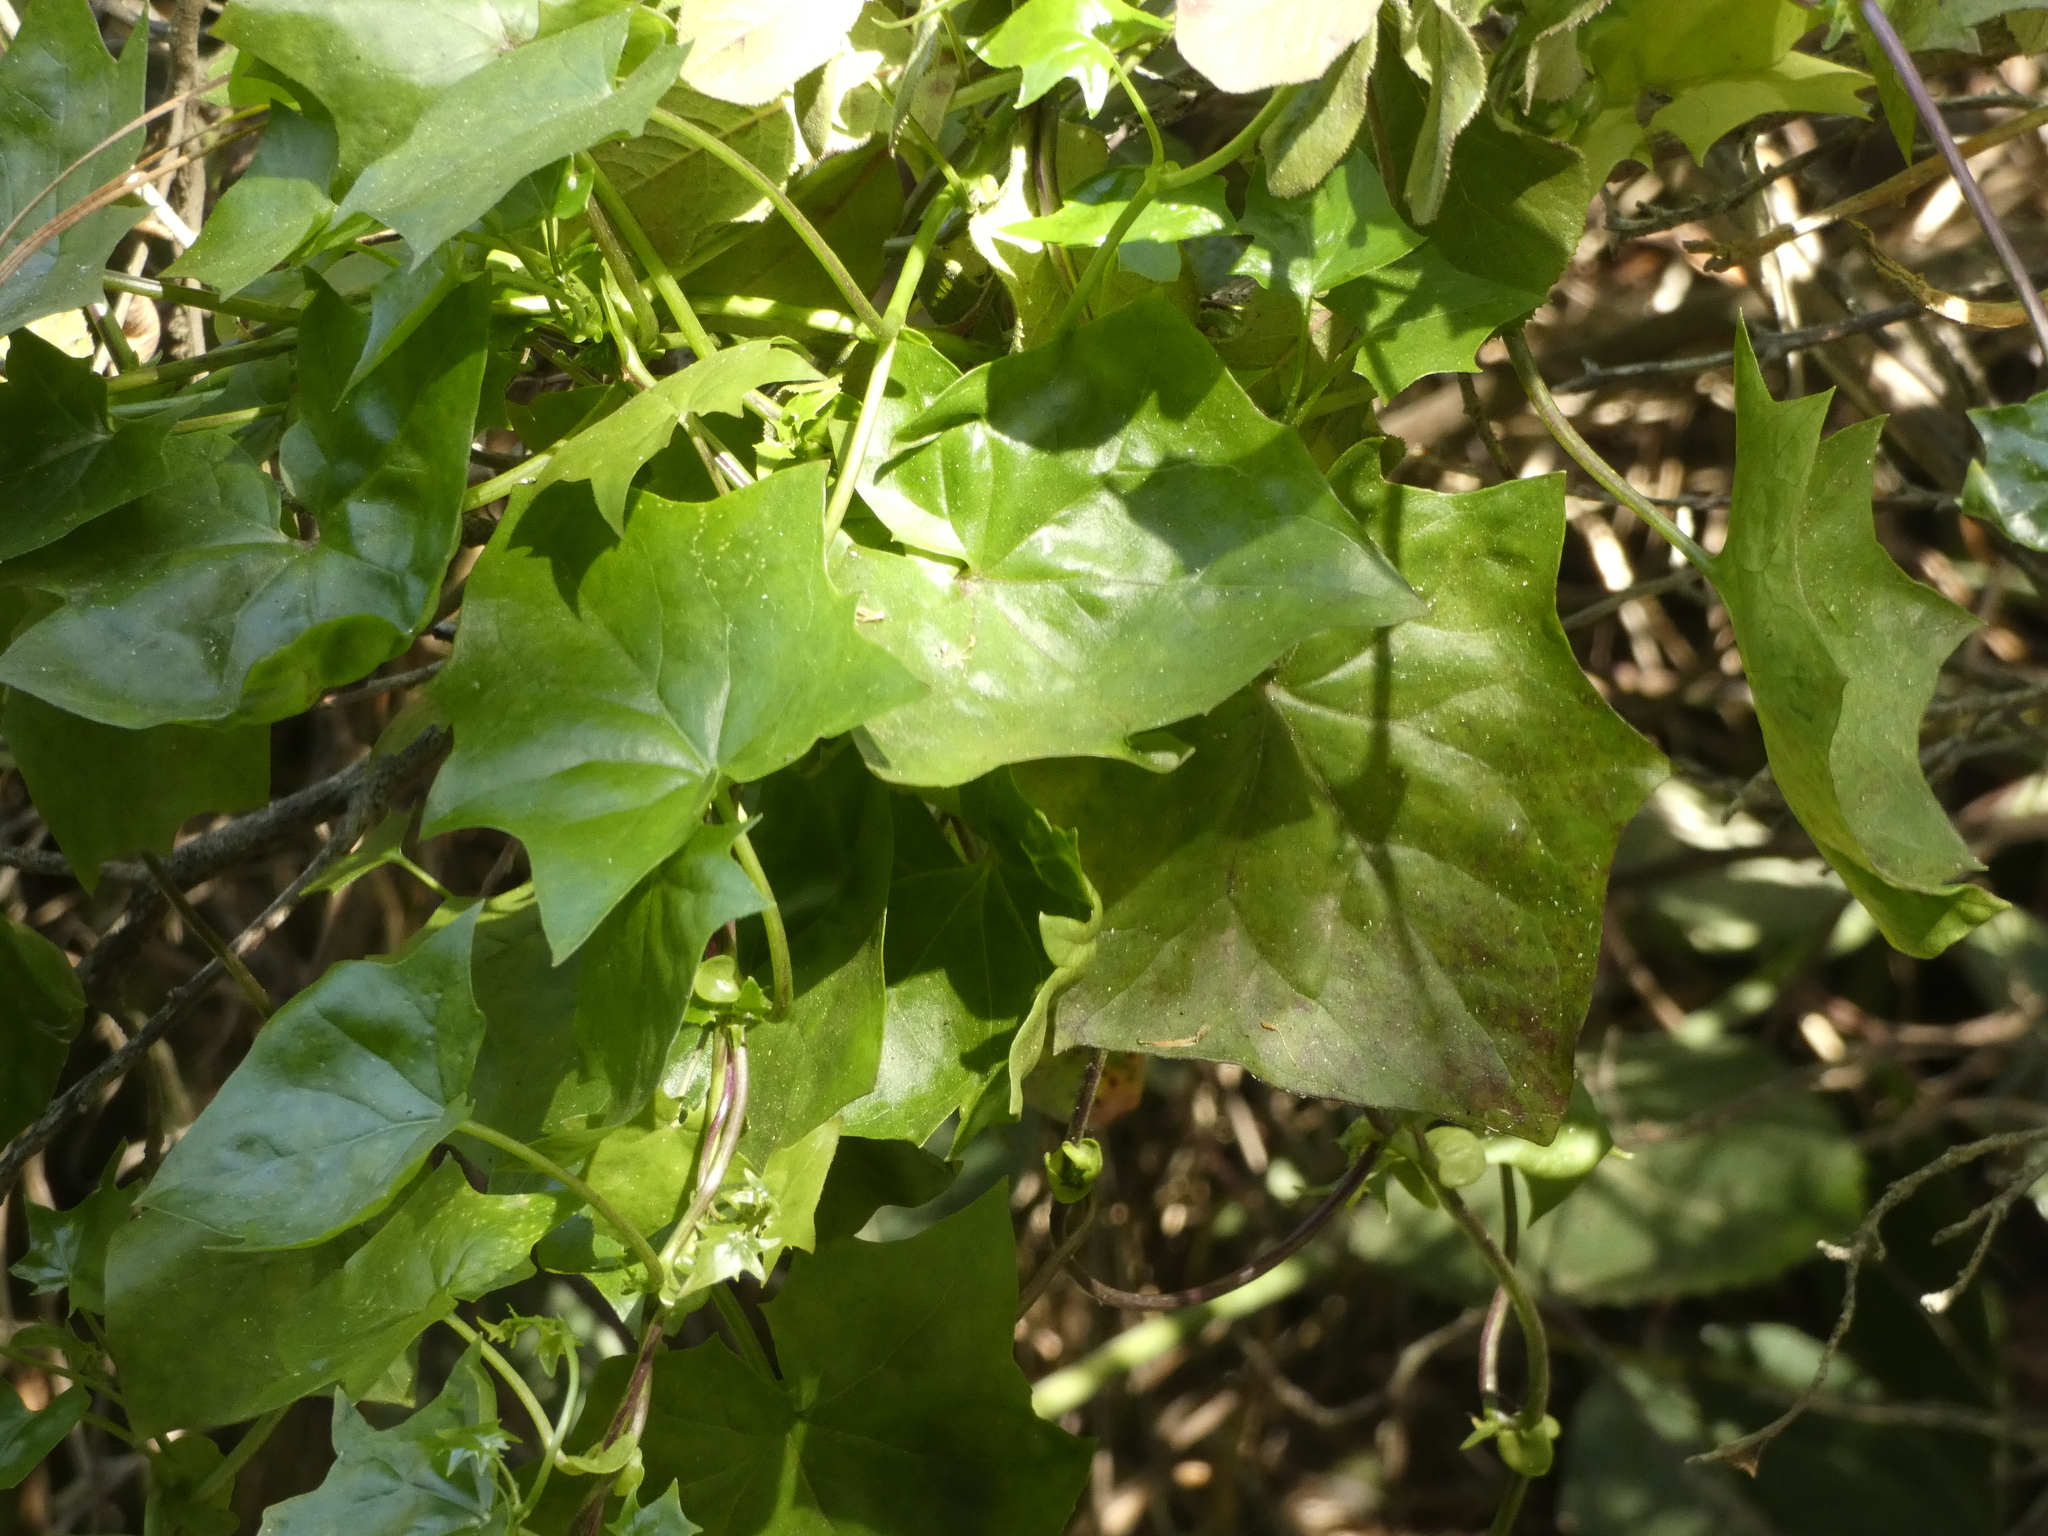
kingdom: Plantae
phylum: Tracheophyta
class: Magnoliopsida
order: Asterales
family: Asteraceae
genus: Delairea
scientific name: Delairea odorata
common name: Cape-ivy
